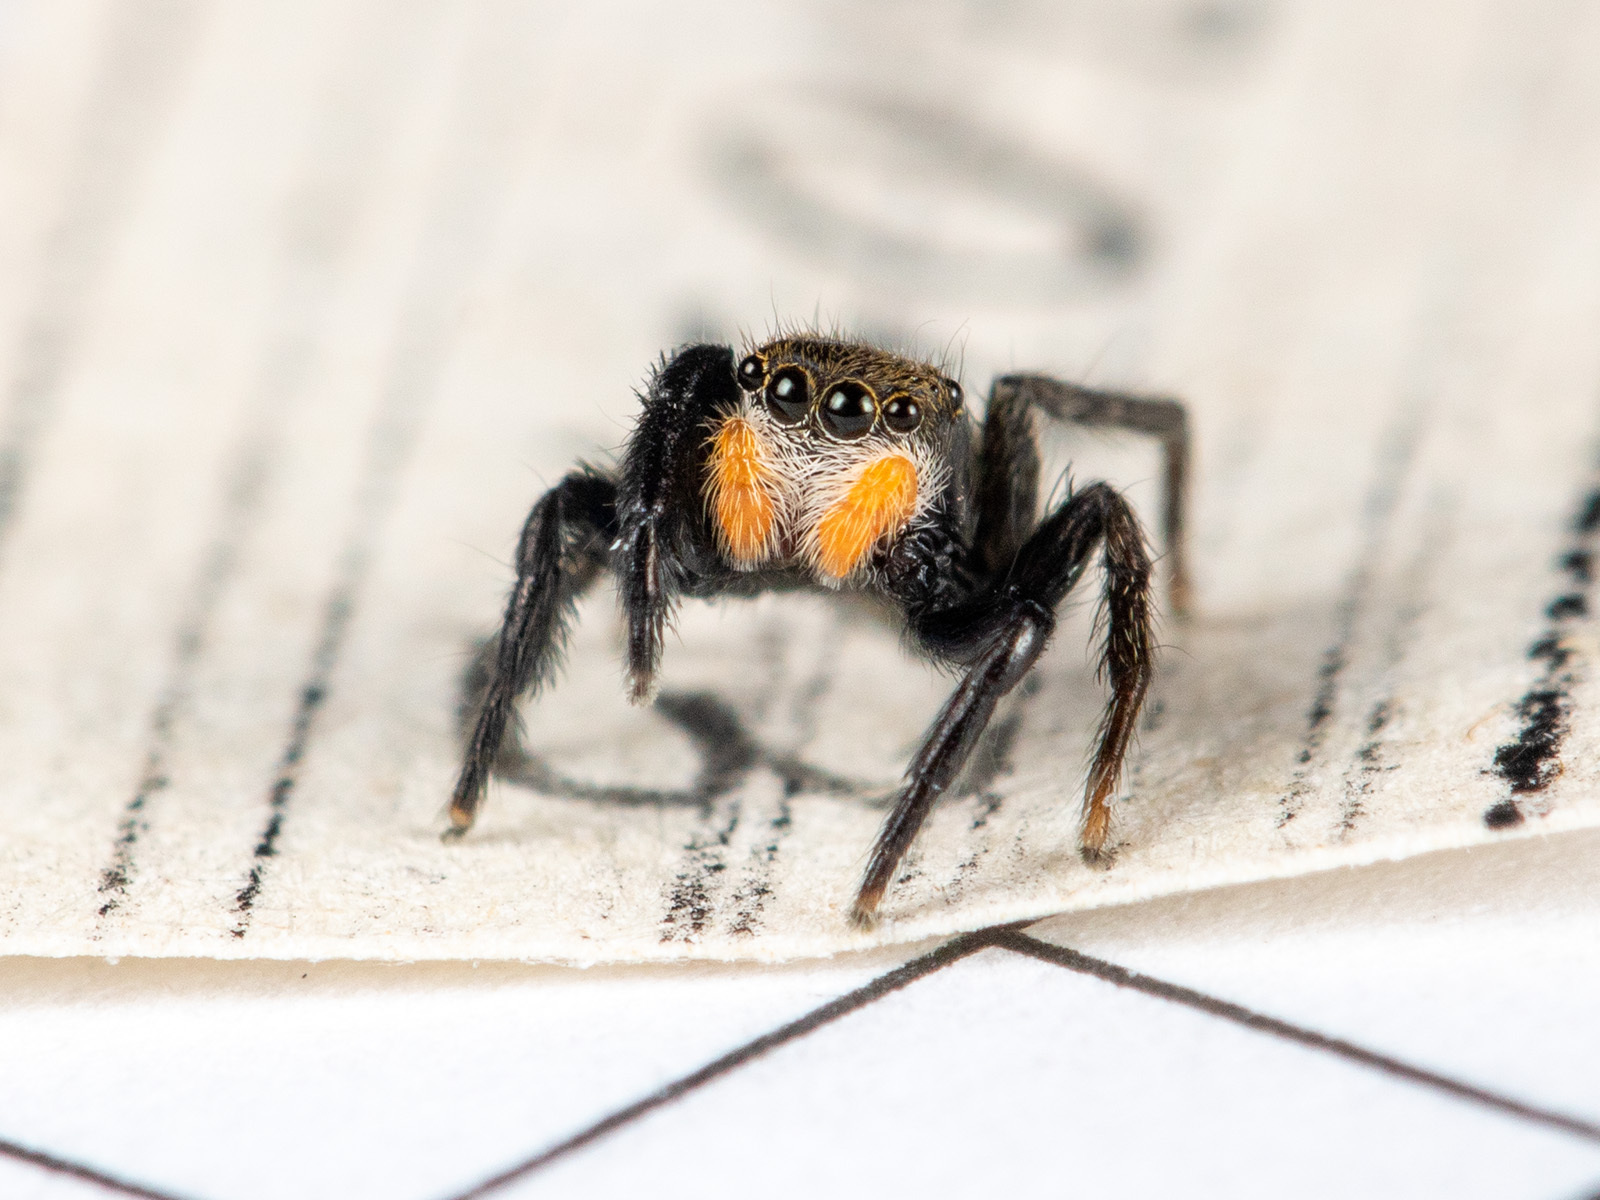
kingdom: Animalia
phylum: Arthropoda
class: Arachnida
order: Araneae
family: Salticidae
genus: Euophrys
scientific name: Euophrys uralensis
